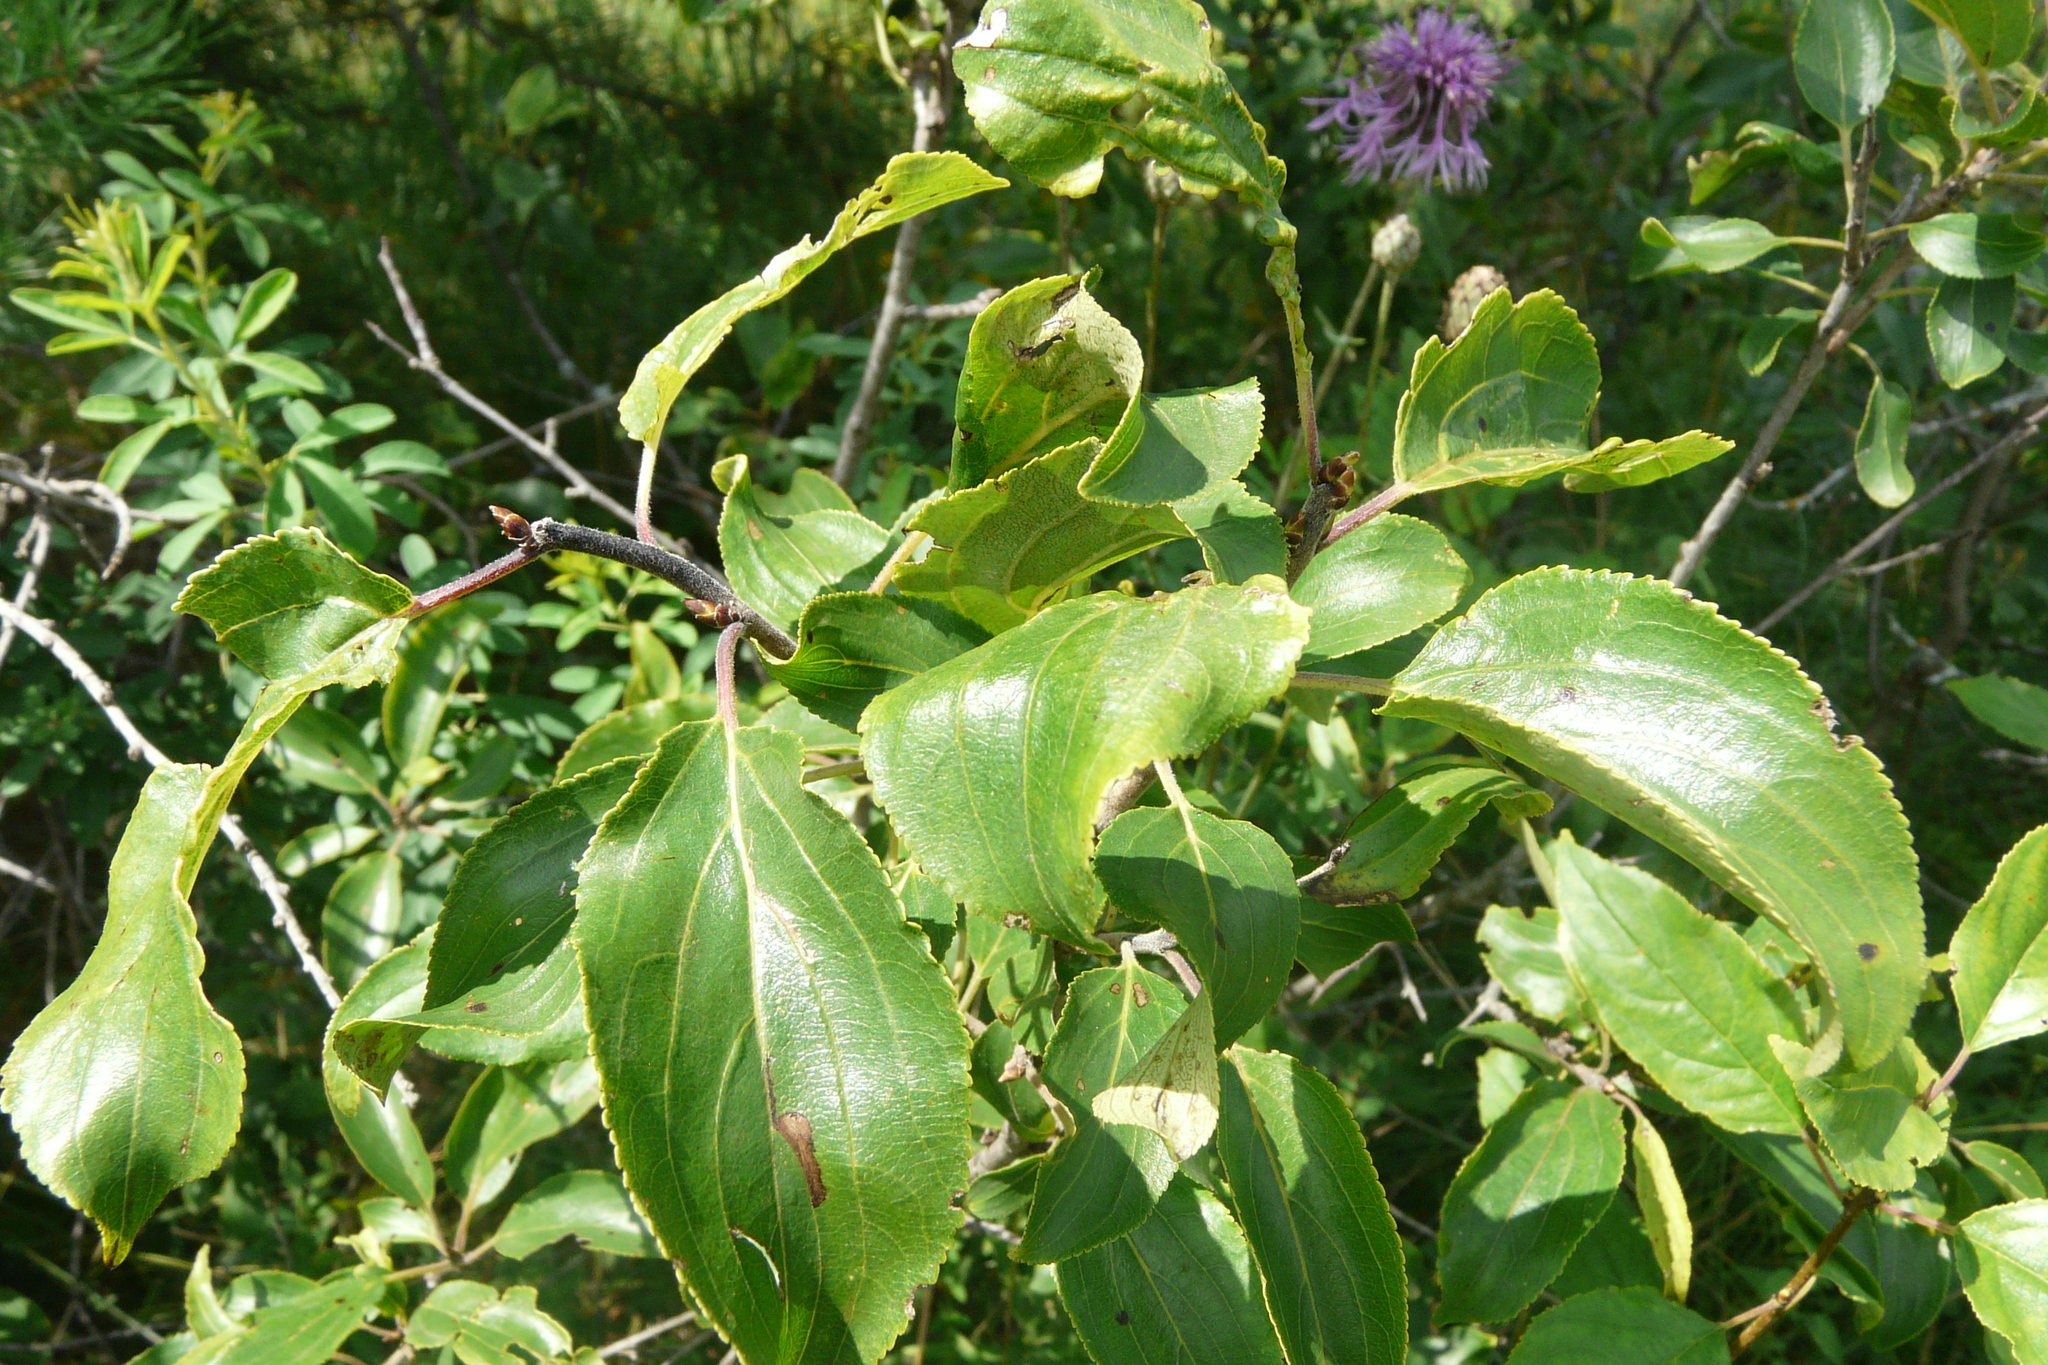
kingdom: Plantae
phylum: Tracheophyta
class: Magnoliopsida
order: Rosales
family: Rhamnaceae
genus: Rhamnus
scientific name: Rhamnus cathartica
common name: Common buckthorn
